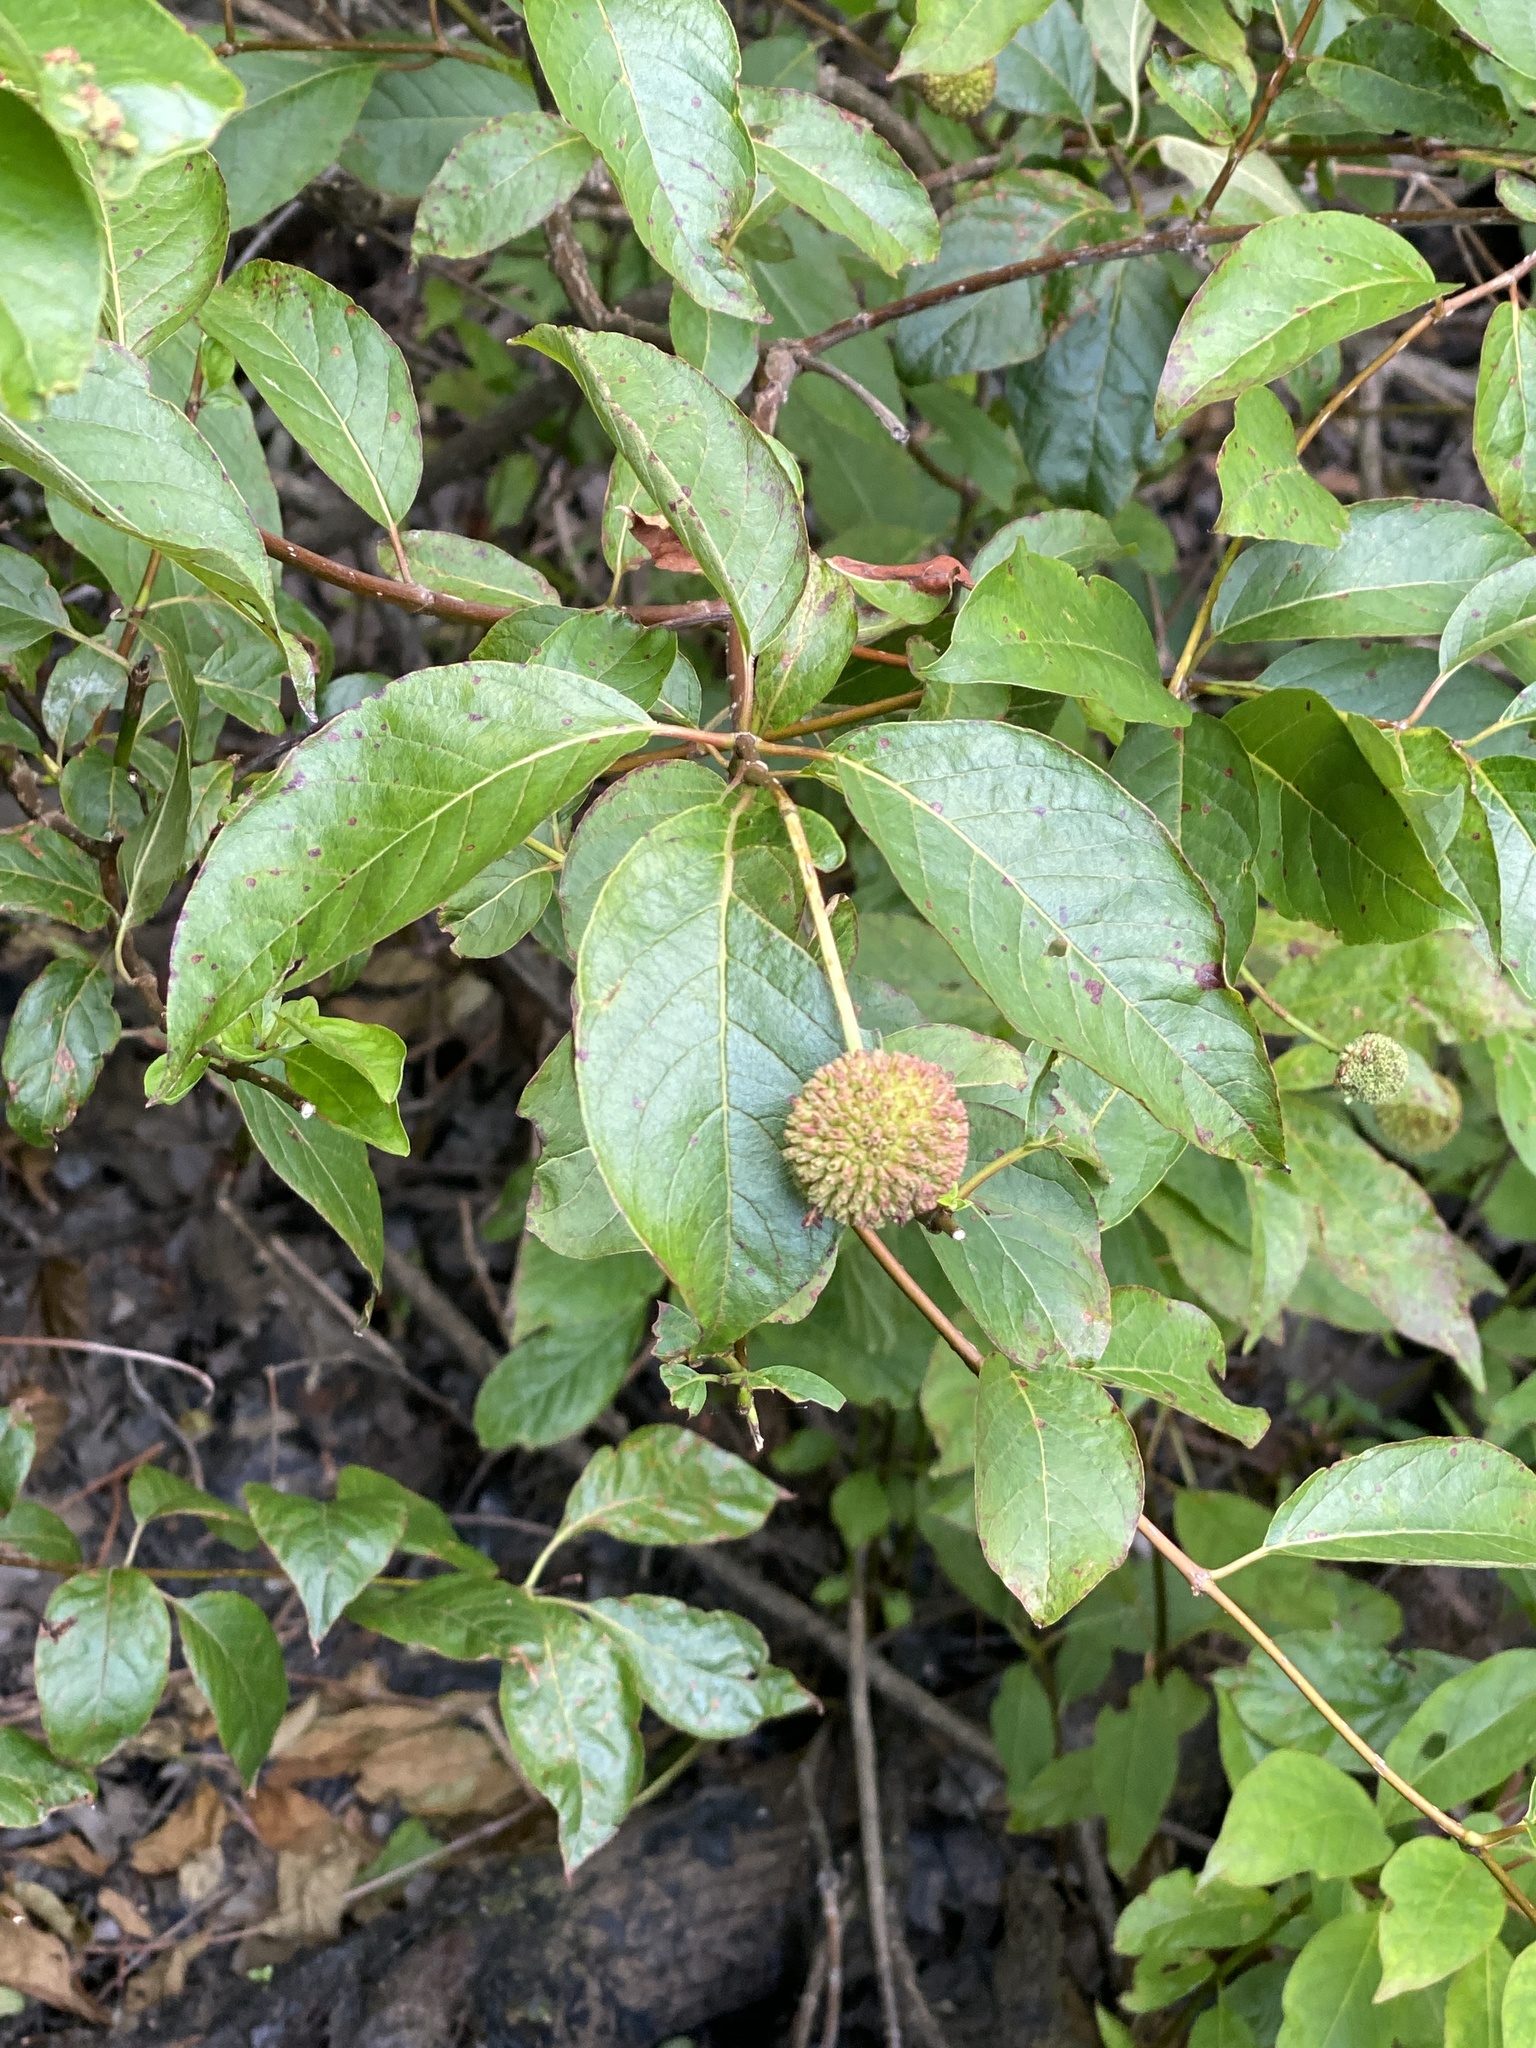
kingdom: Plantae
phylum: Tracheophyta
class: Magnoliopsida
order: Gentianales
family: Rubiaceae
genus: Cephalanthus
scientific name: Cephalanthus occidentalis
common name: Button-willow
